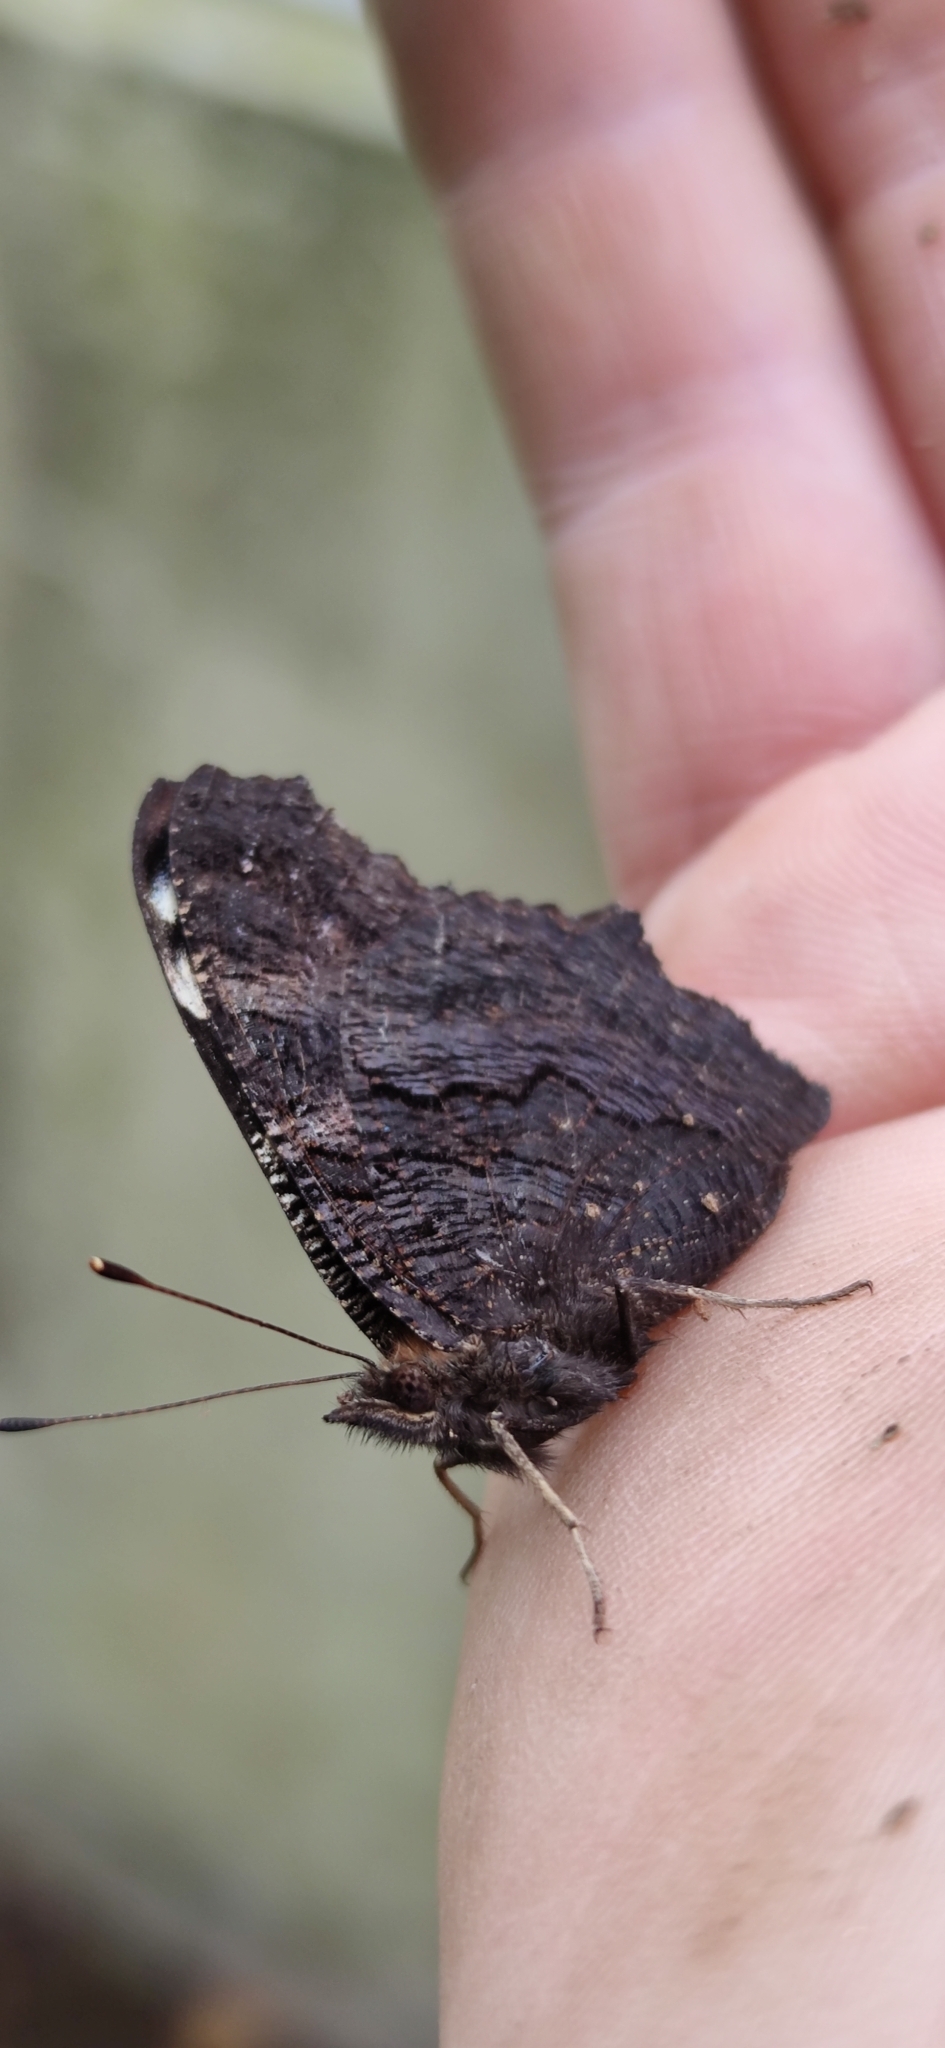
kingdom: Animalia
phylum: Arthropoda
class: Insecta
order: Lepidoptera
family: Nymphalidae
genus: Aglais
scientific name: Aglais io
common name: Peacock
